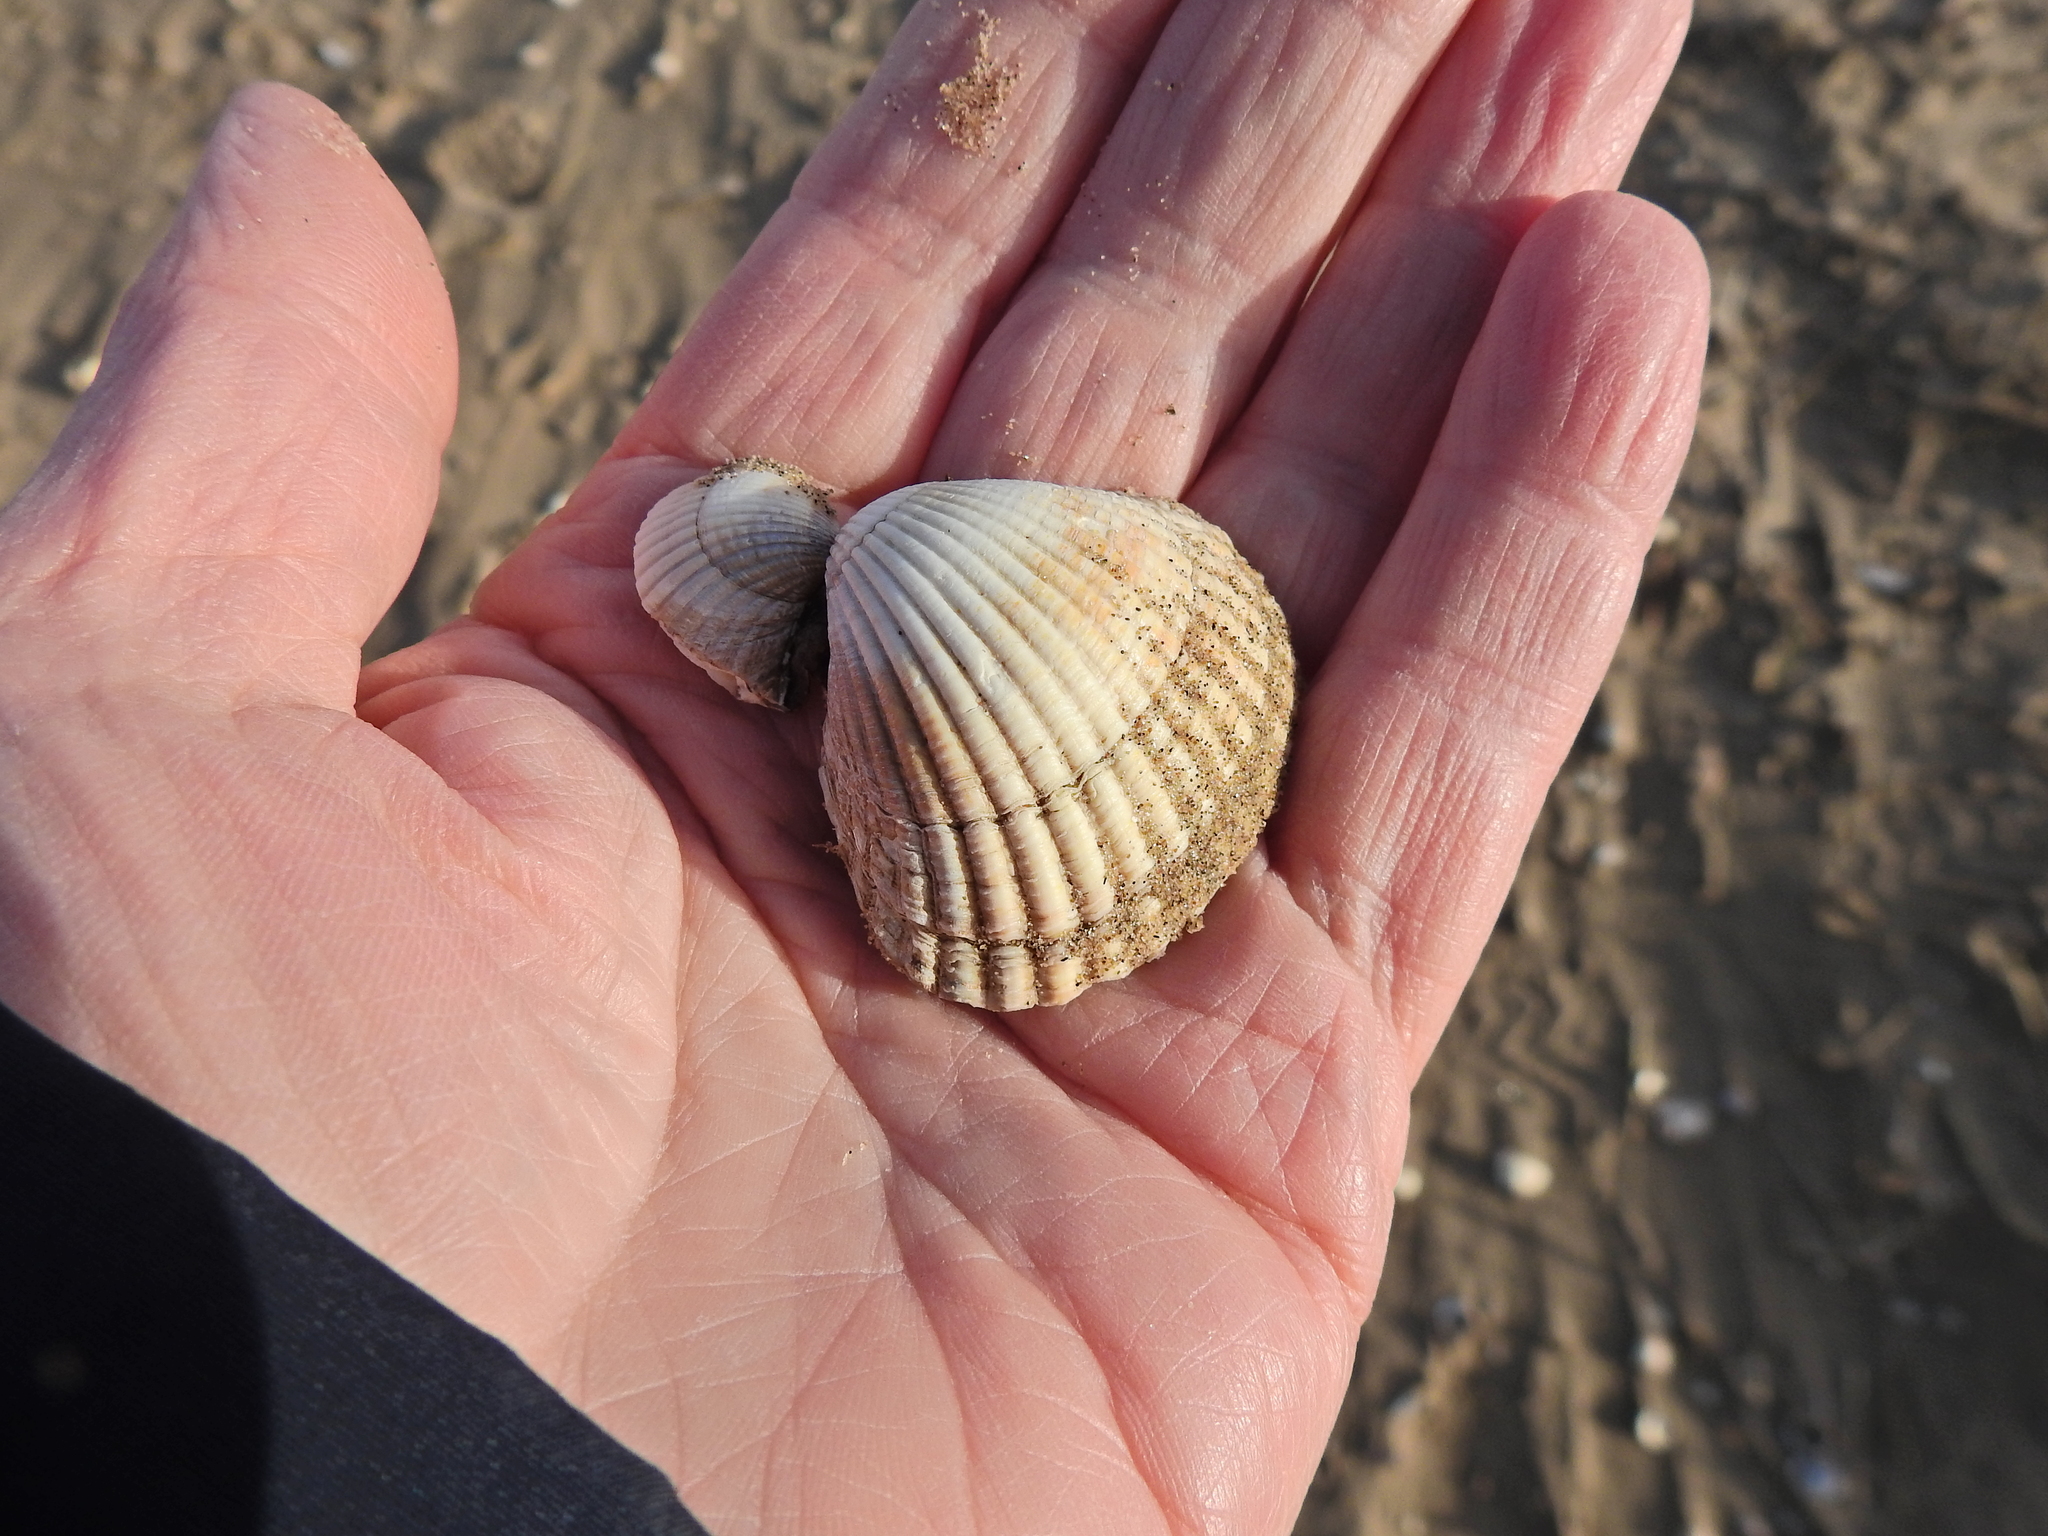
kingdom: Animalia
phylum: Mollusca
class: Bivalvia
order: Cardiida
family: Cardiidae
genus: Cerastoderma
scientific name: Cerastoderma edule
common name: Common cockle
